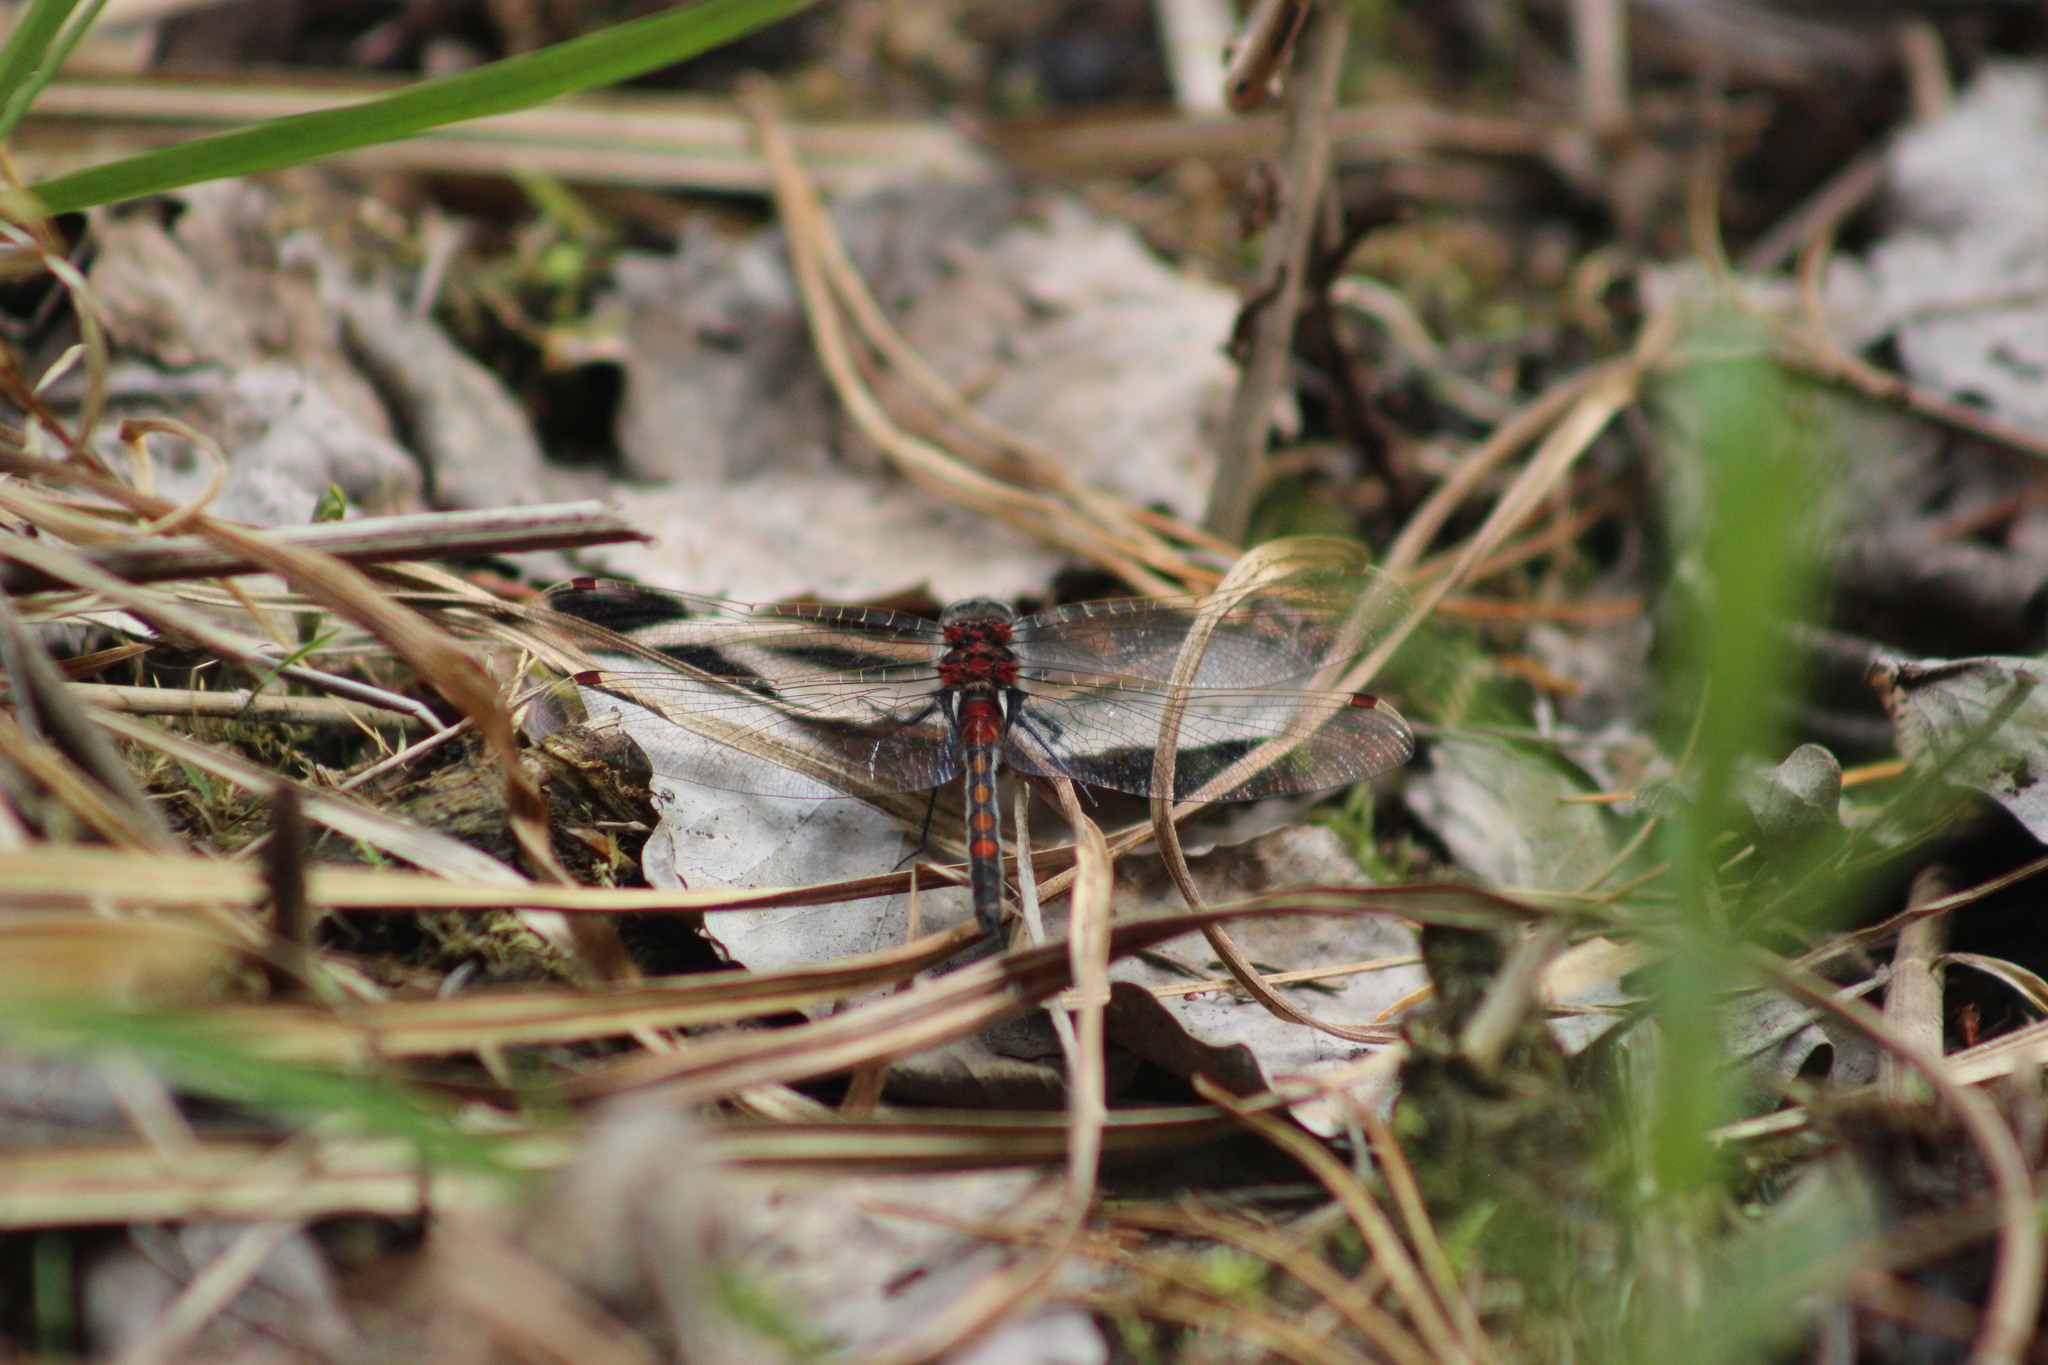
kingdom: Animalia
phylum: Arthropoda
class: Insecta
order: Odonata
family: Libellulidae
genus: Leucorrhinia
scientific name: Leucorrhinia rubicunda
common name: Ruby whiteface
